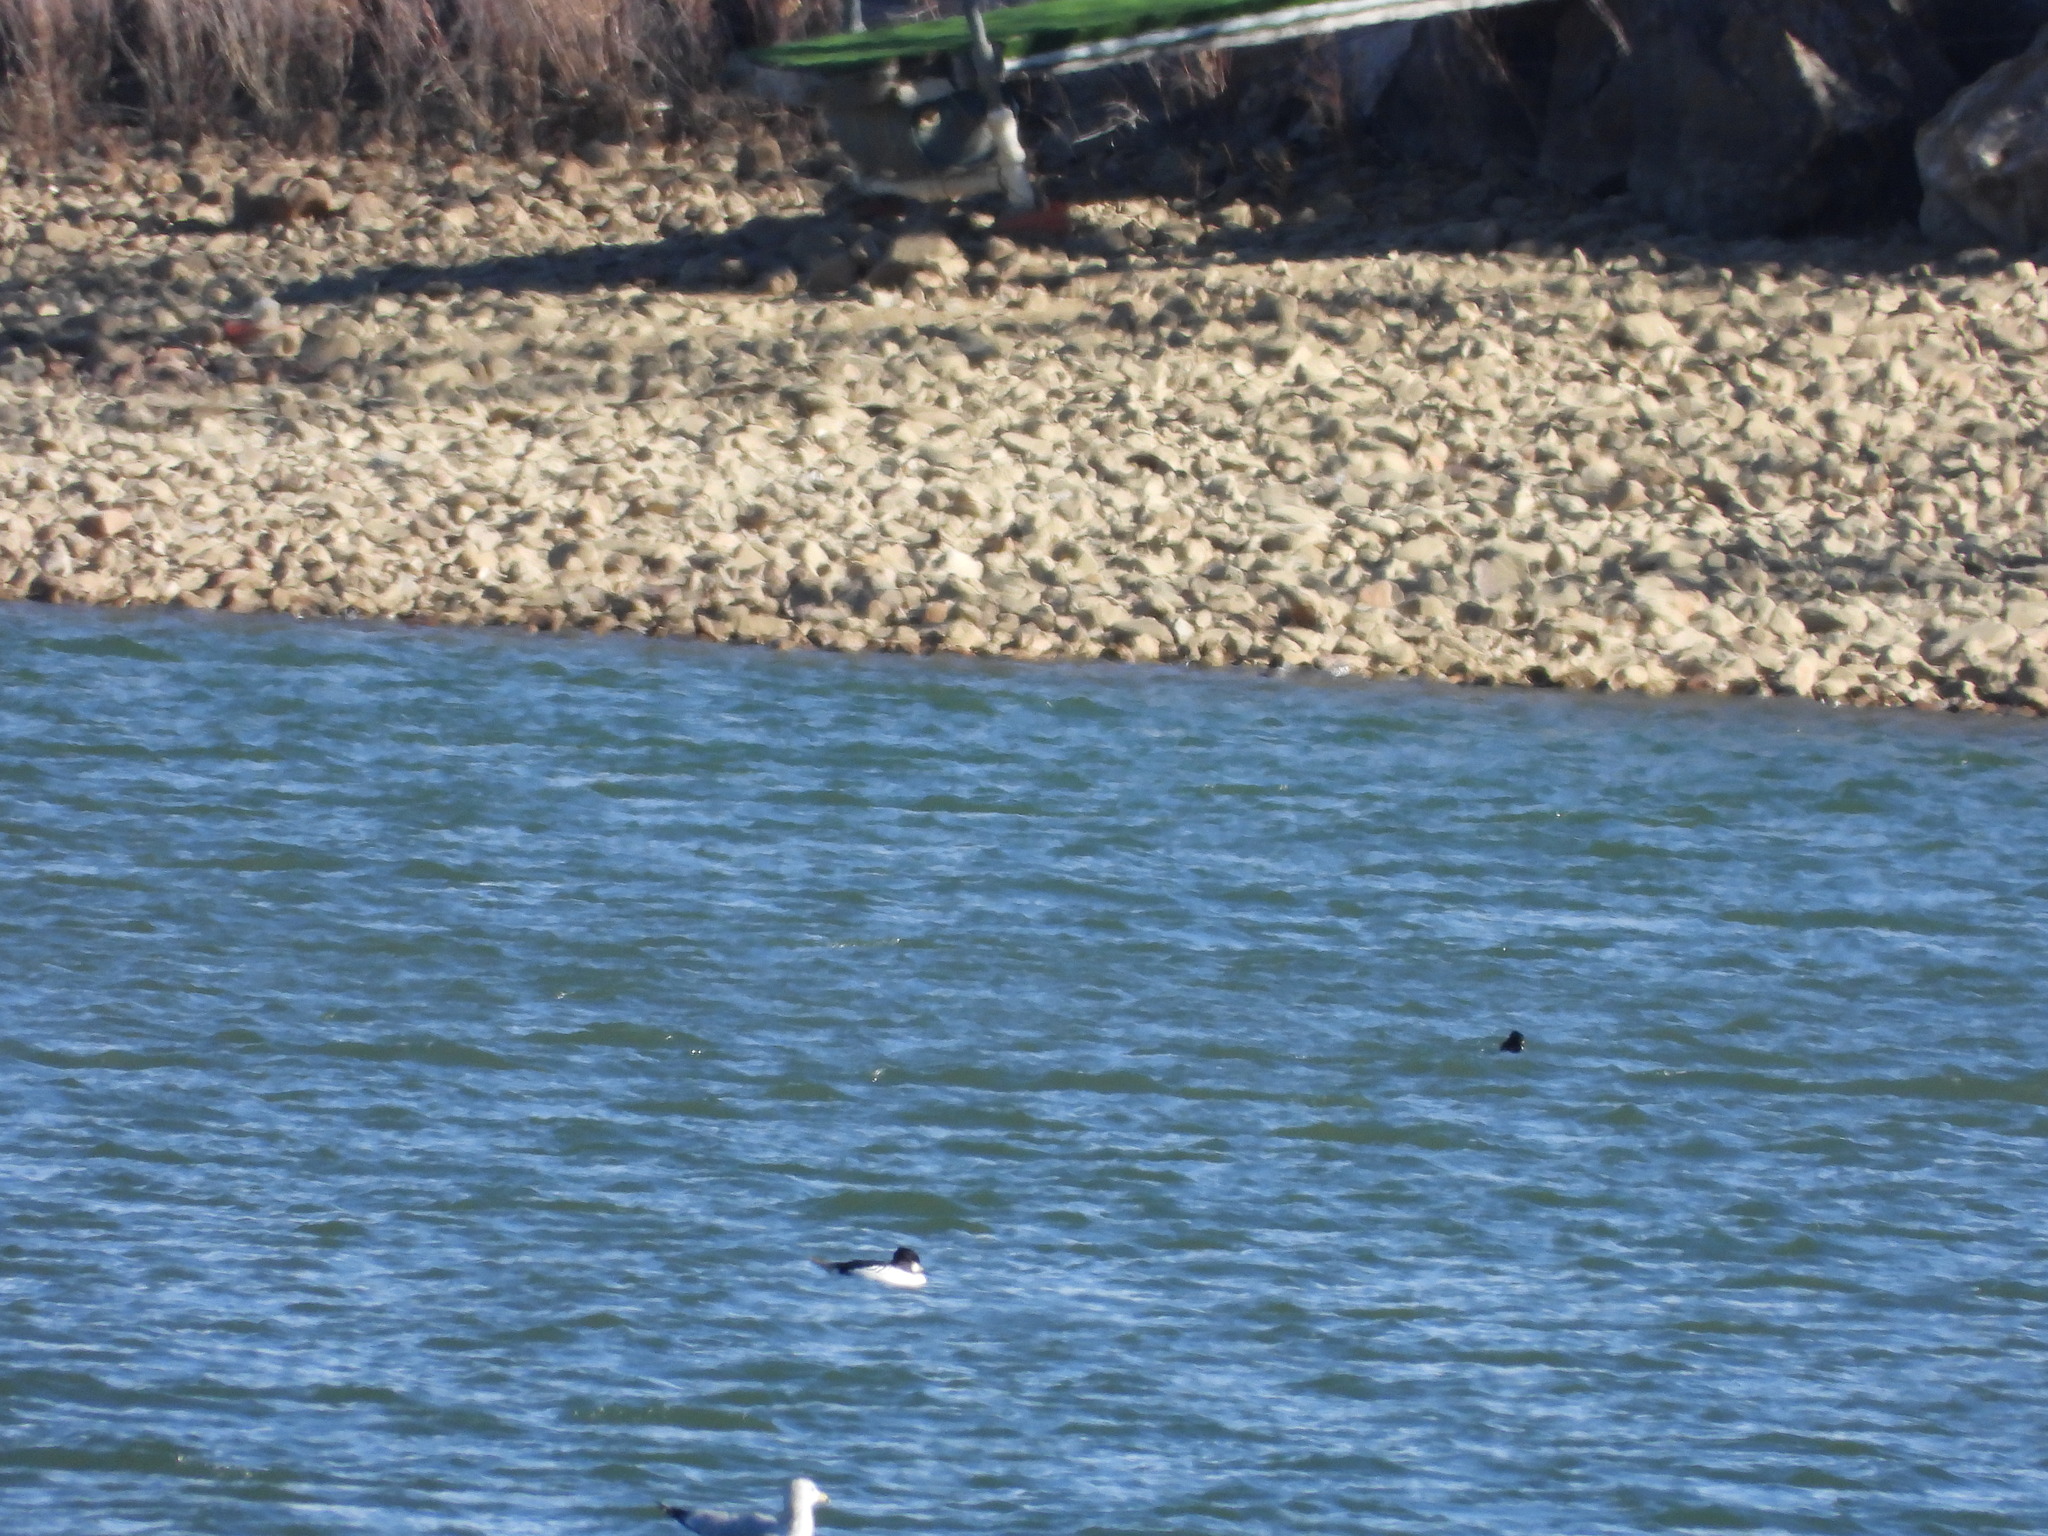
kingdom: Animalia
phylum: Chordata
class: Aves
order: Anseriformes
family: Anatidae
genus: Bucephala
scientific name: Bucephala clangula
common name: Common goldeneye
